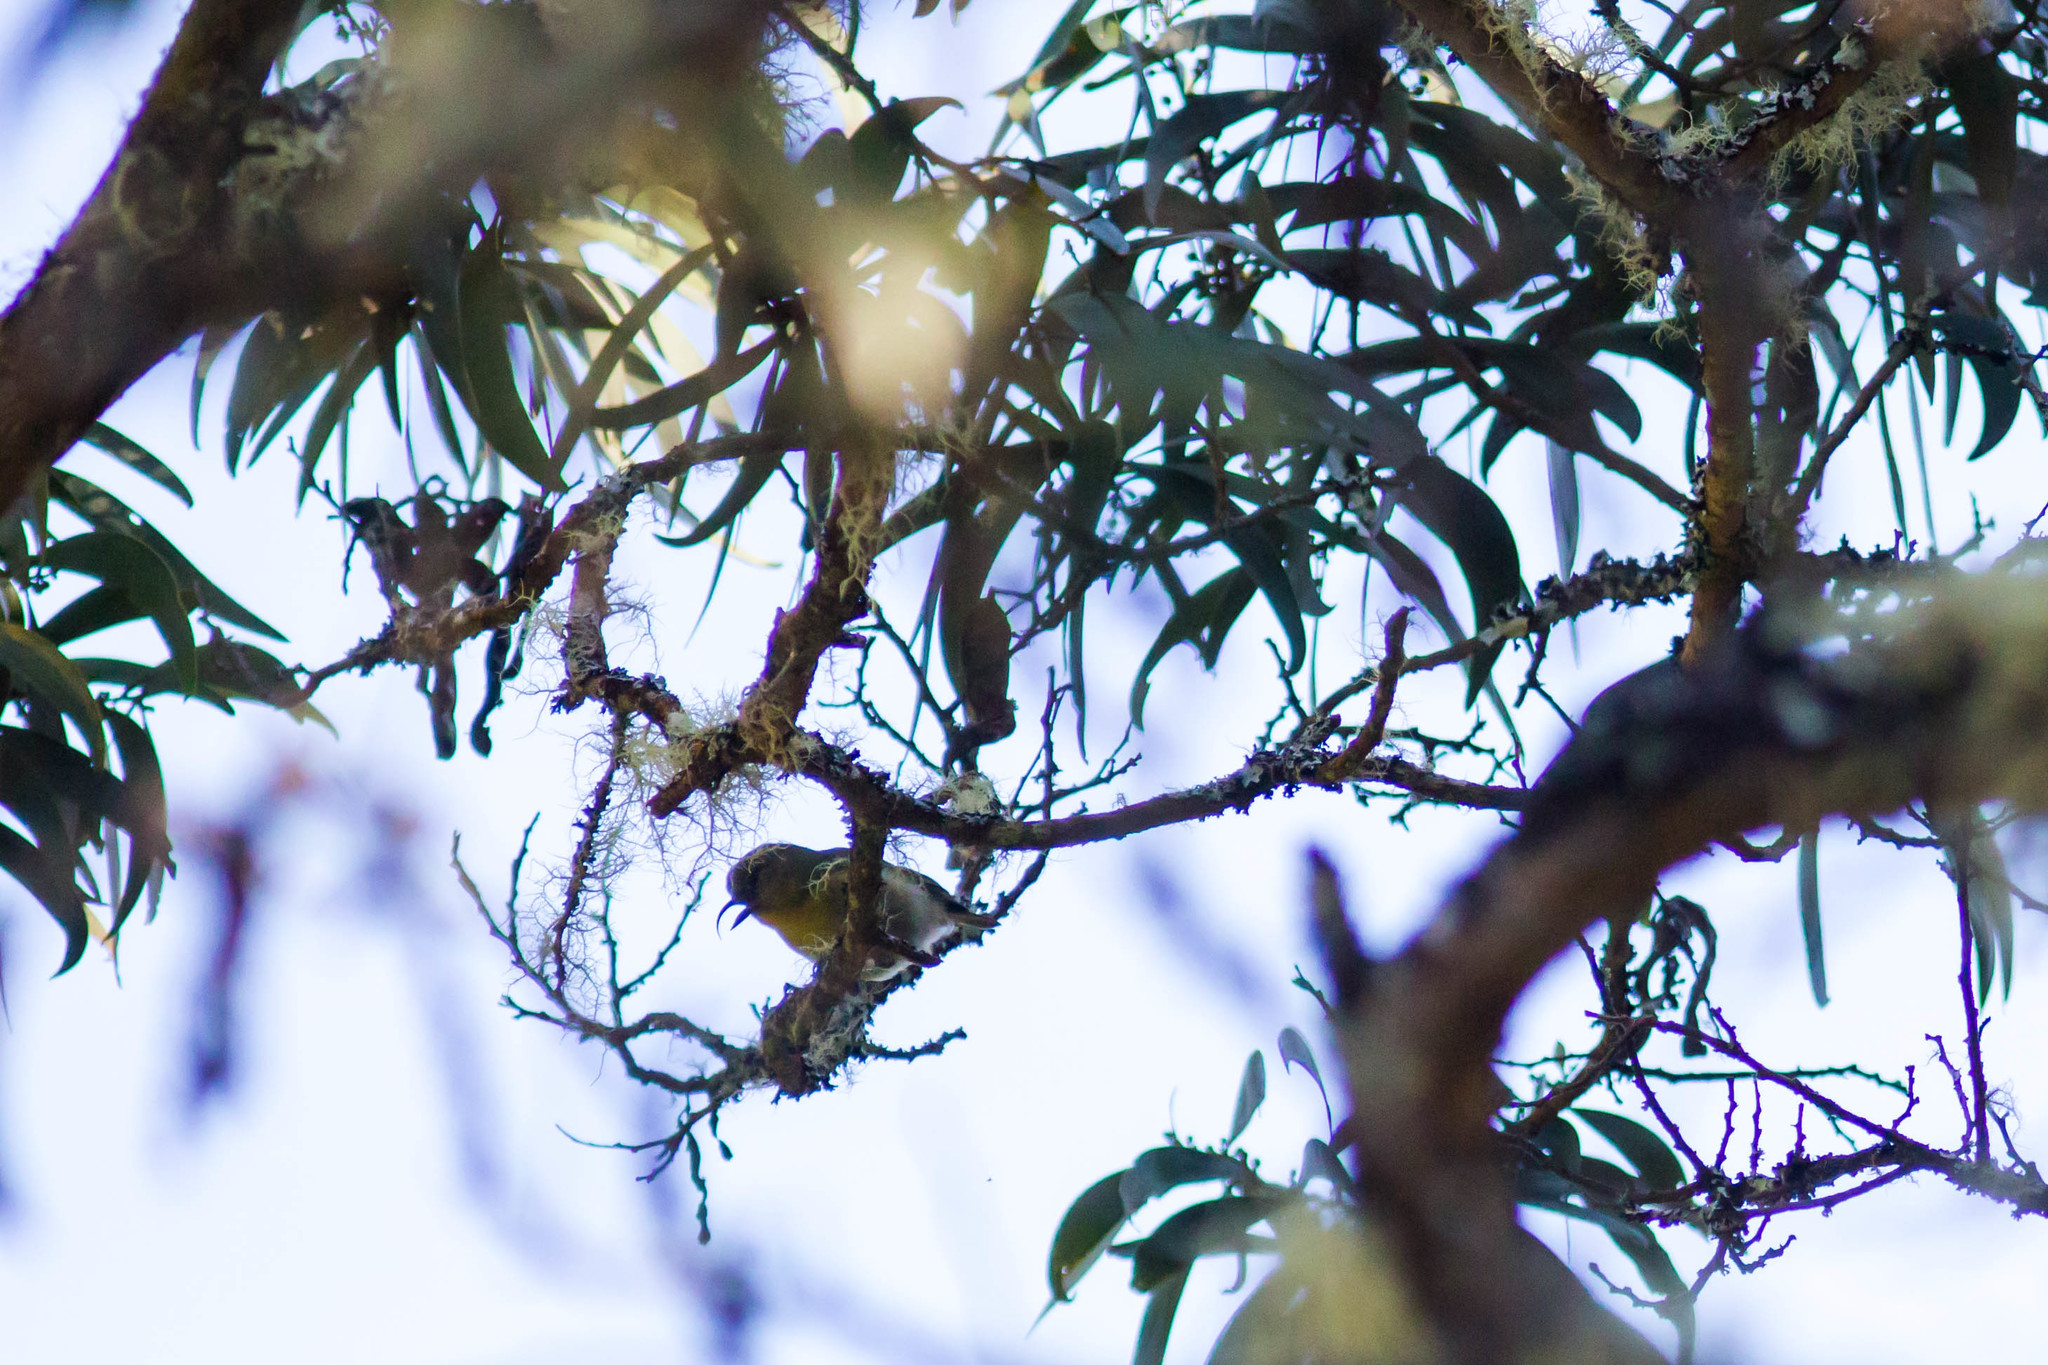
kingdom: Animalia
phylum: Chordata
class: Aves
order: Passeriformes
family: Fringillidae
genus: Hemignathus
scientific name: Hemignathus wilsoni
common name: Akiapolaau
